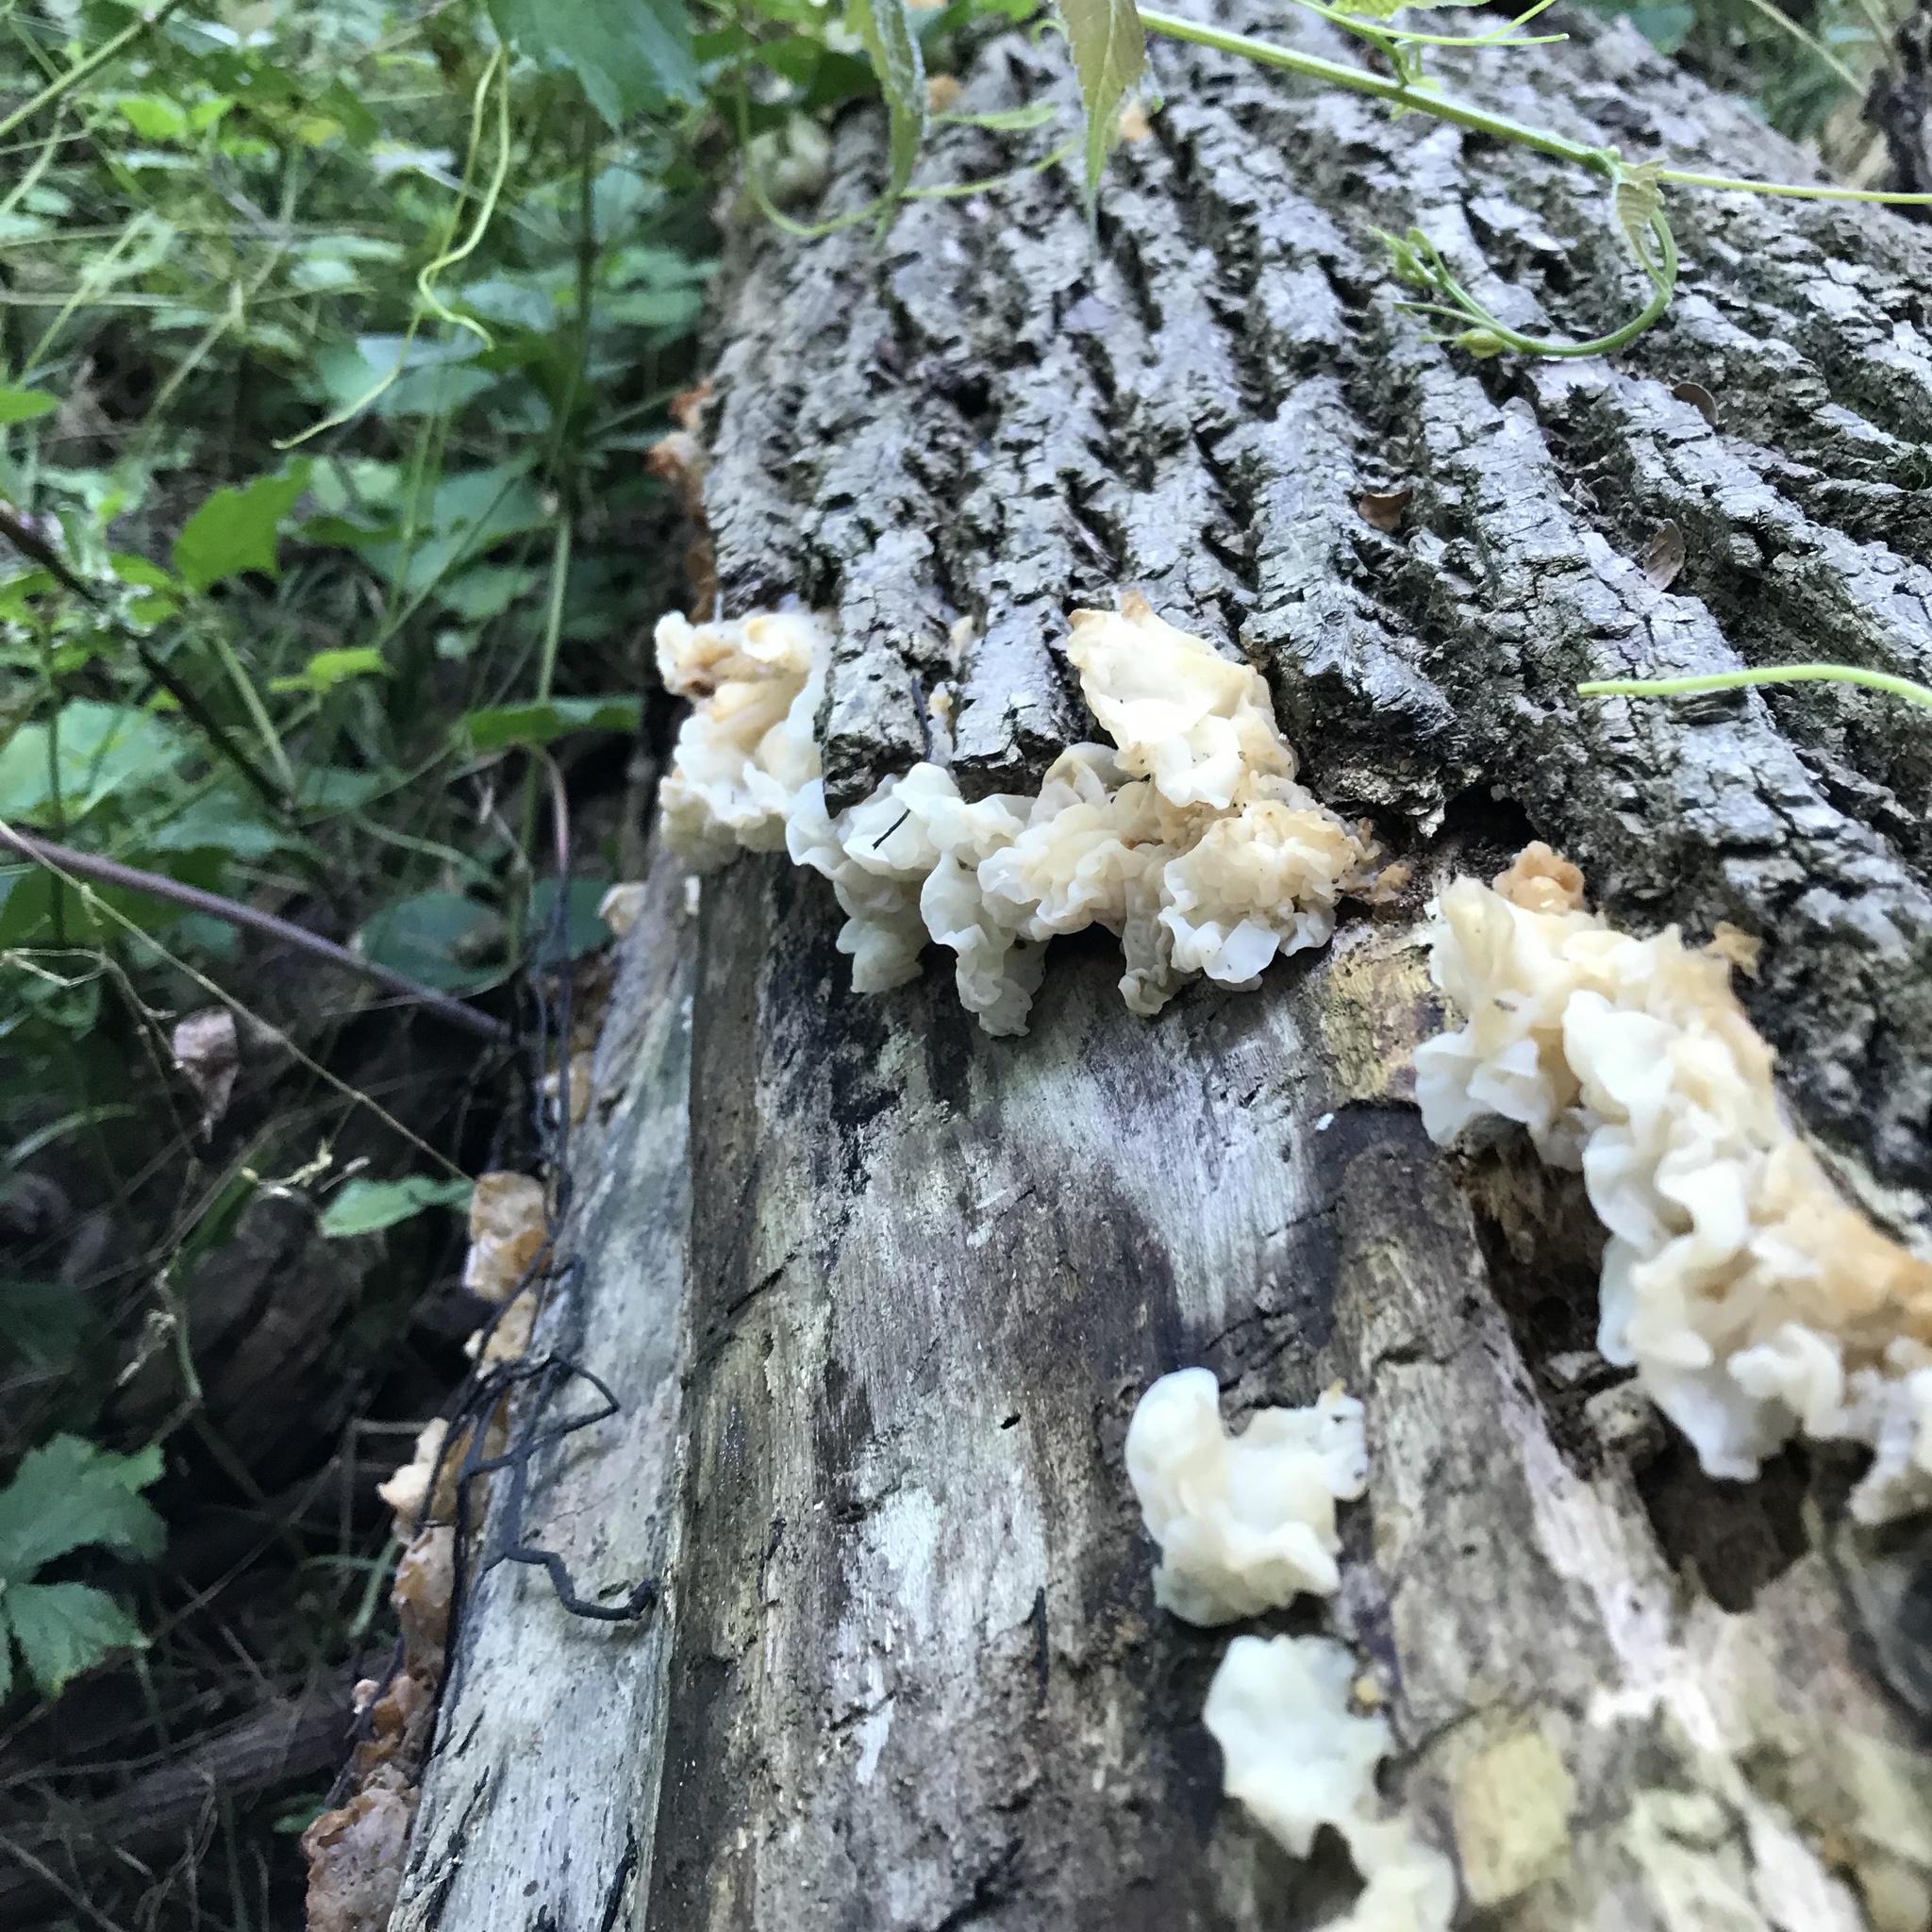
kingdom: Fungi
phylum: Basidiomycota
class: Agaricomycetes
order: Auriculariales
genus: Ductifera
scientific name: Ductifera pululahuana
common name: White jelly fungus
